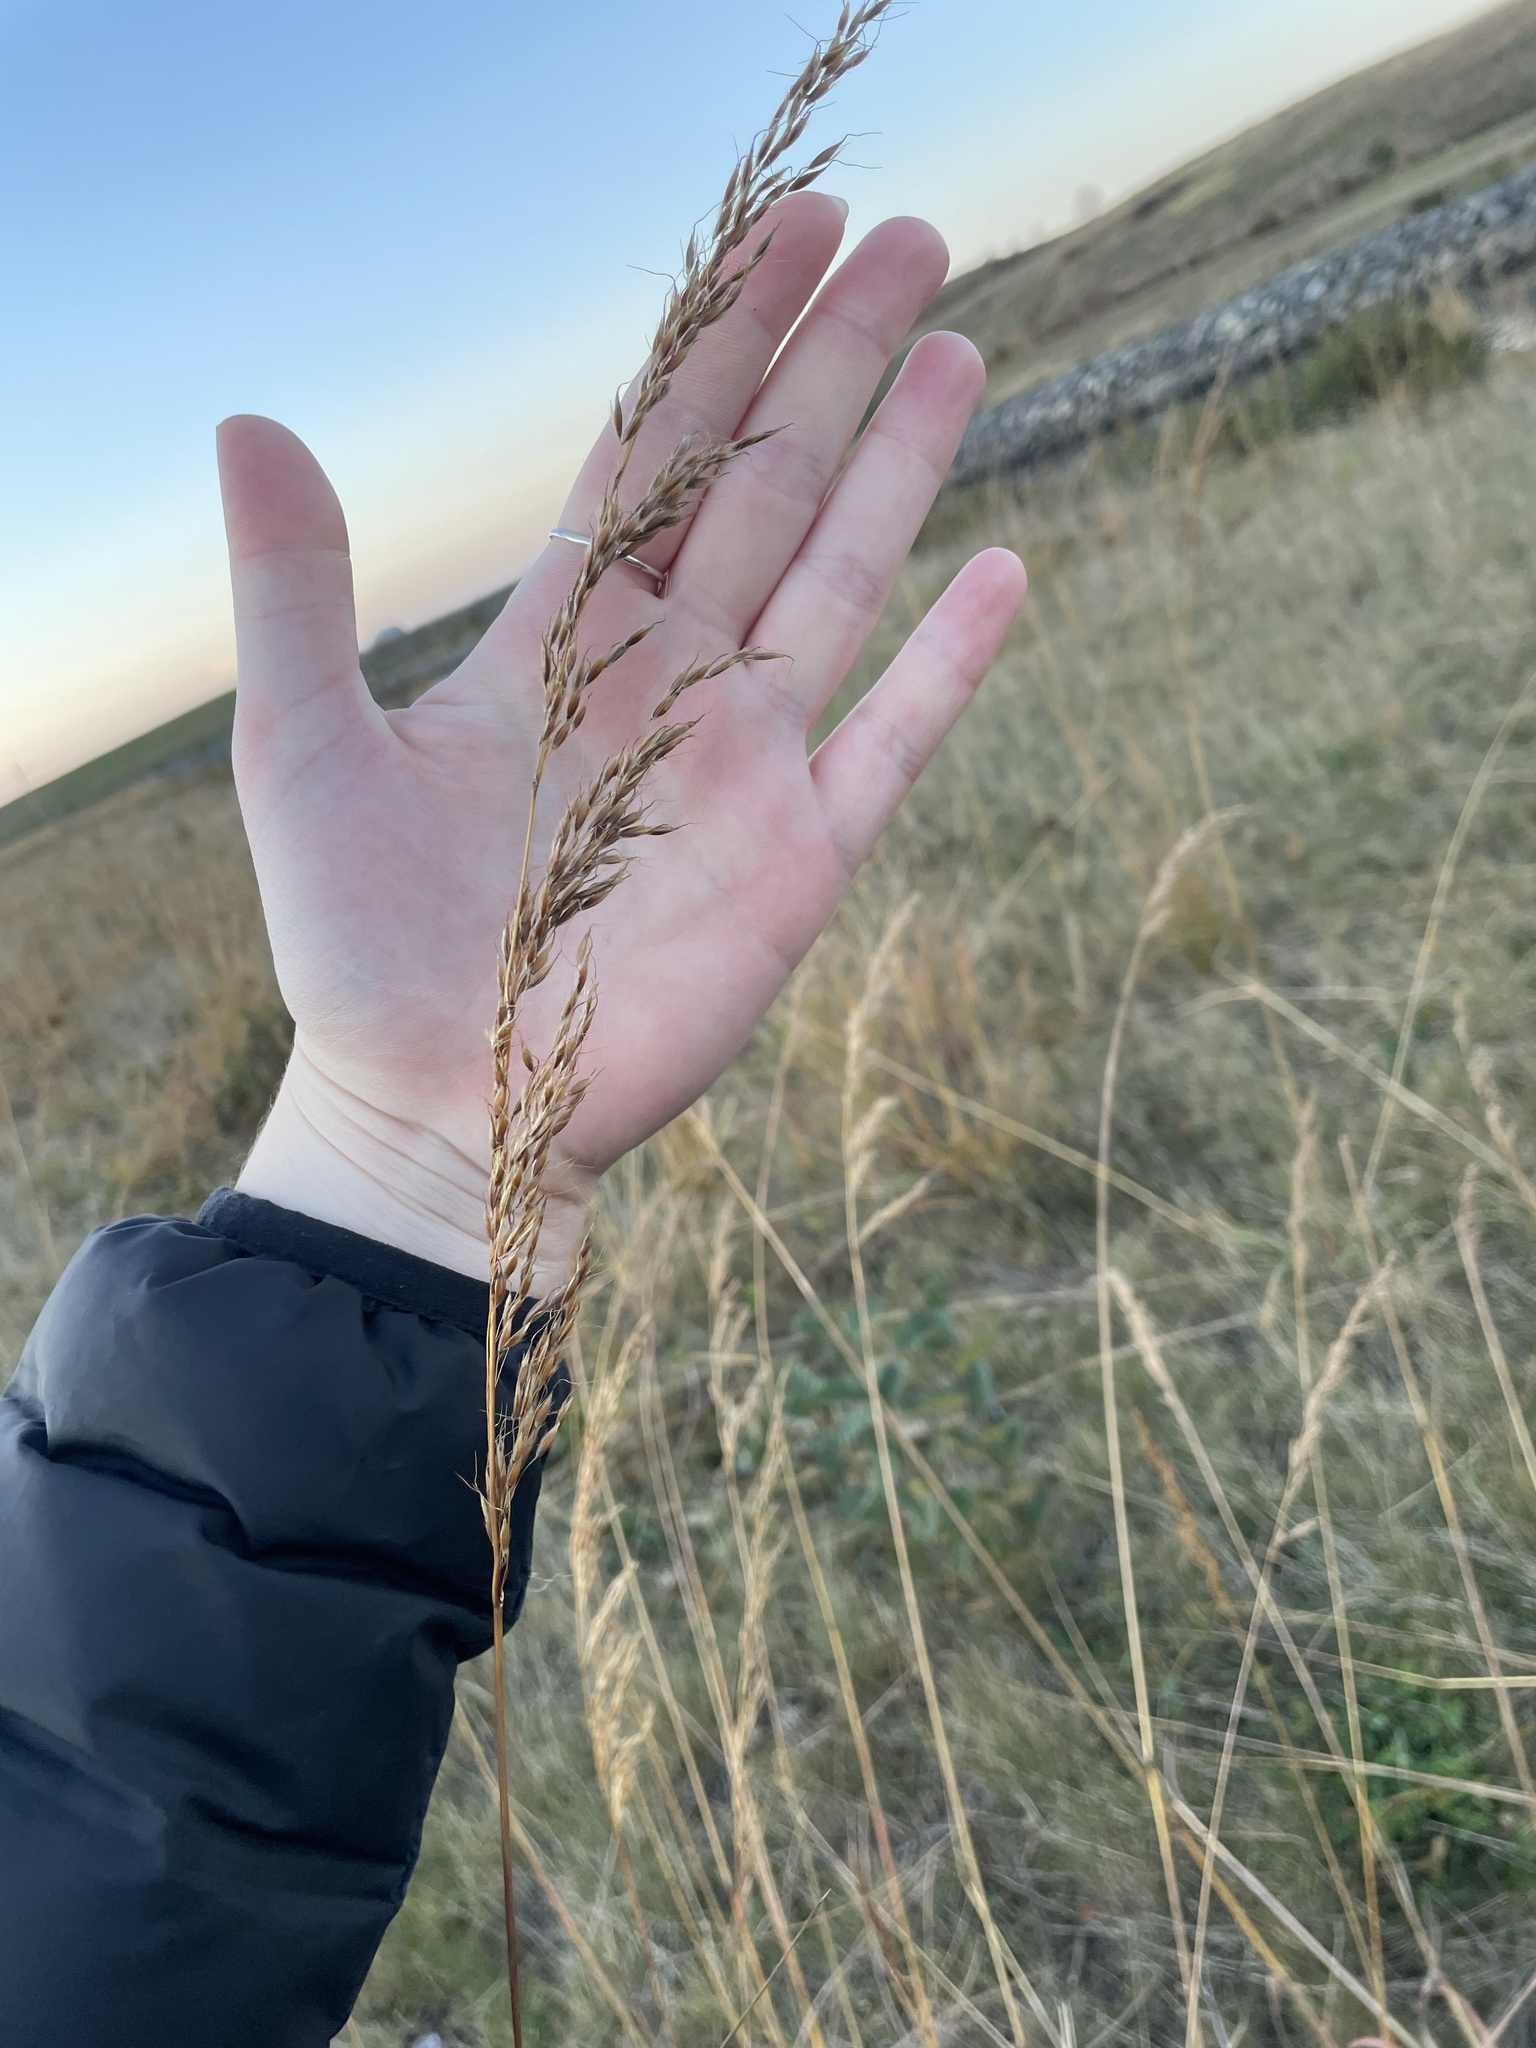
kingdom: Plantae
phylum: Tracheophyta
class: Liliopsida
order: Poales
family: Poaceae
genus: Sorghastrum
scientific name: Sorghastrum nutans
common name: Indian grass
